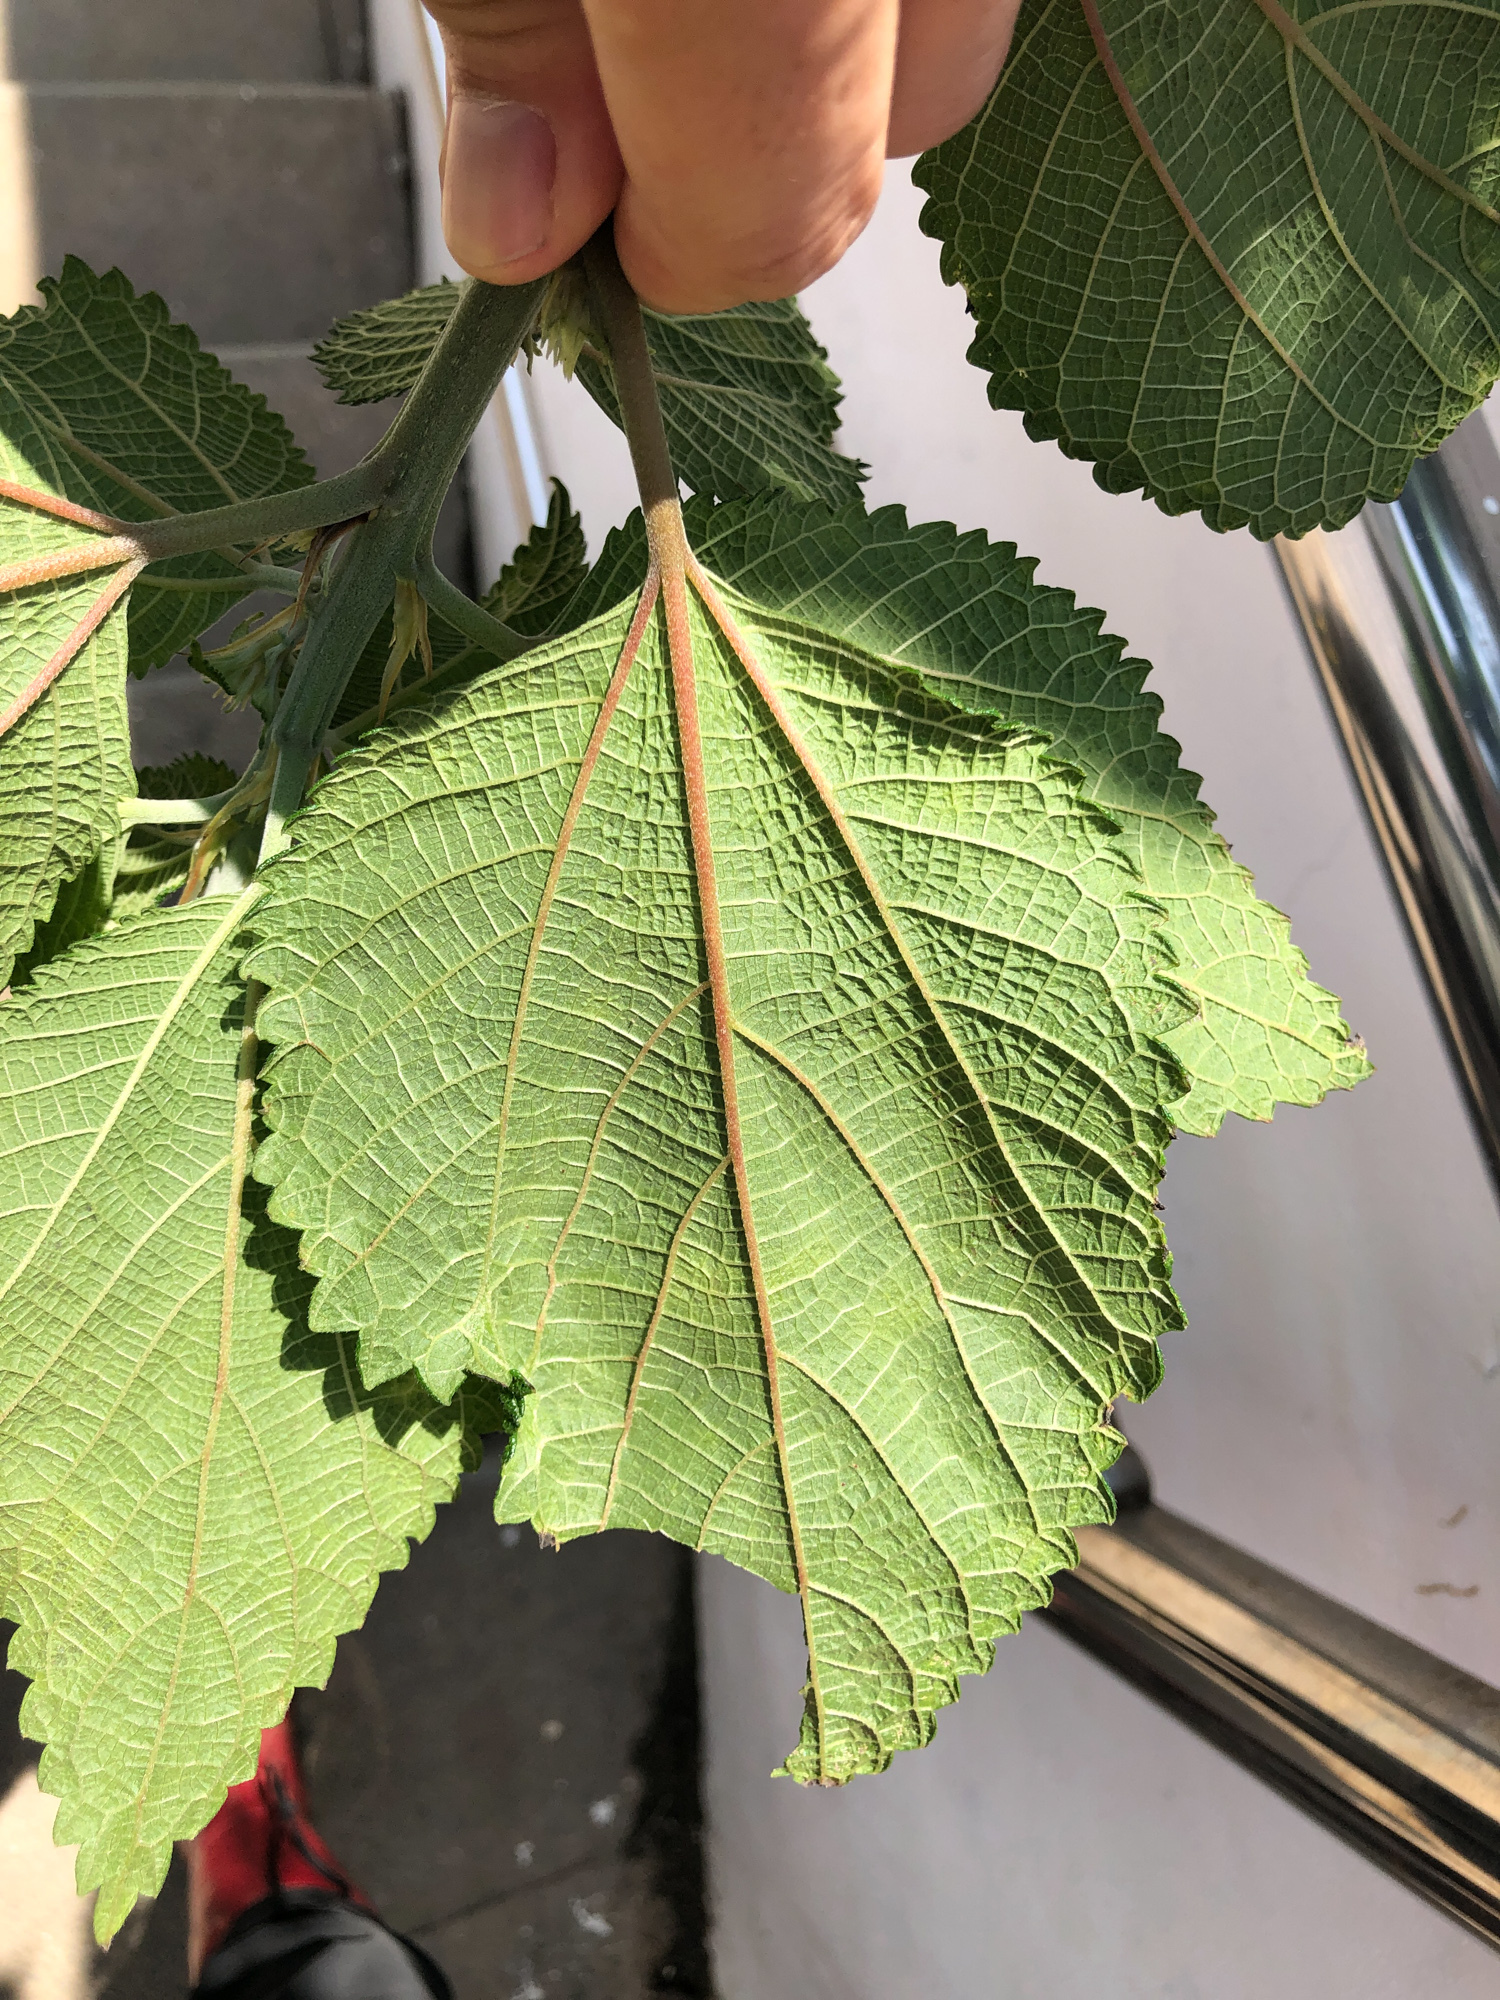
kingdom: Plantae
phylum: Tracheophyta
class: Magnoliopsida
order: Rosales
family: Urticaceae
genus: Boehmeria
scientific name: Boehmeria nivea
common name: Ramie chinese grass
